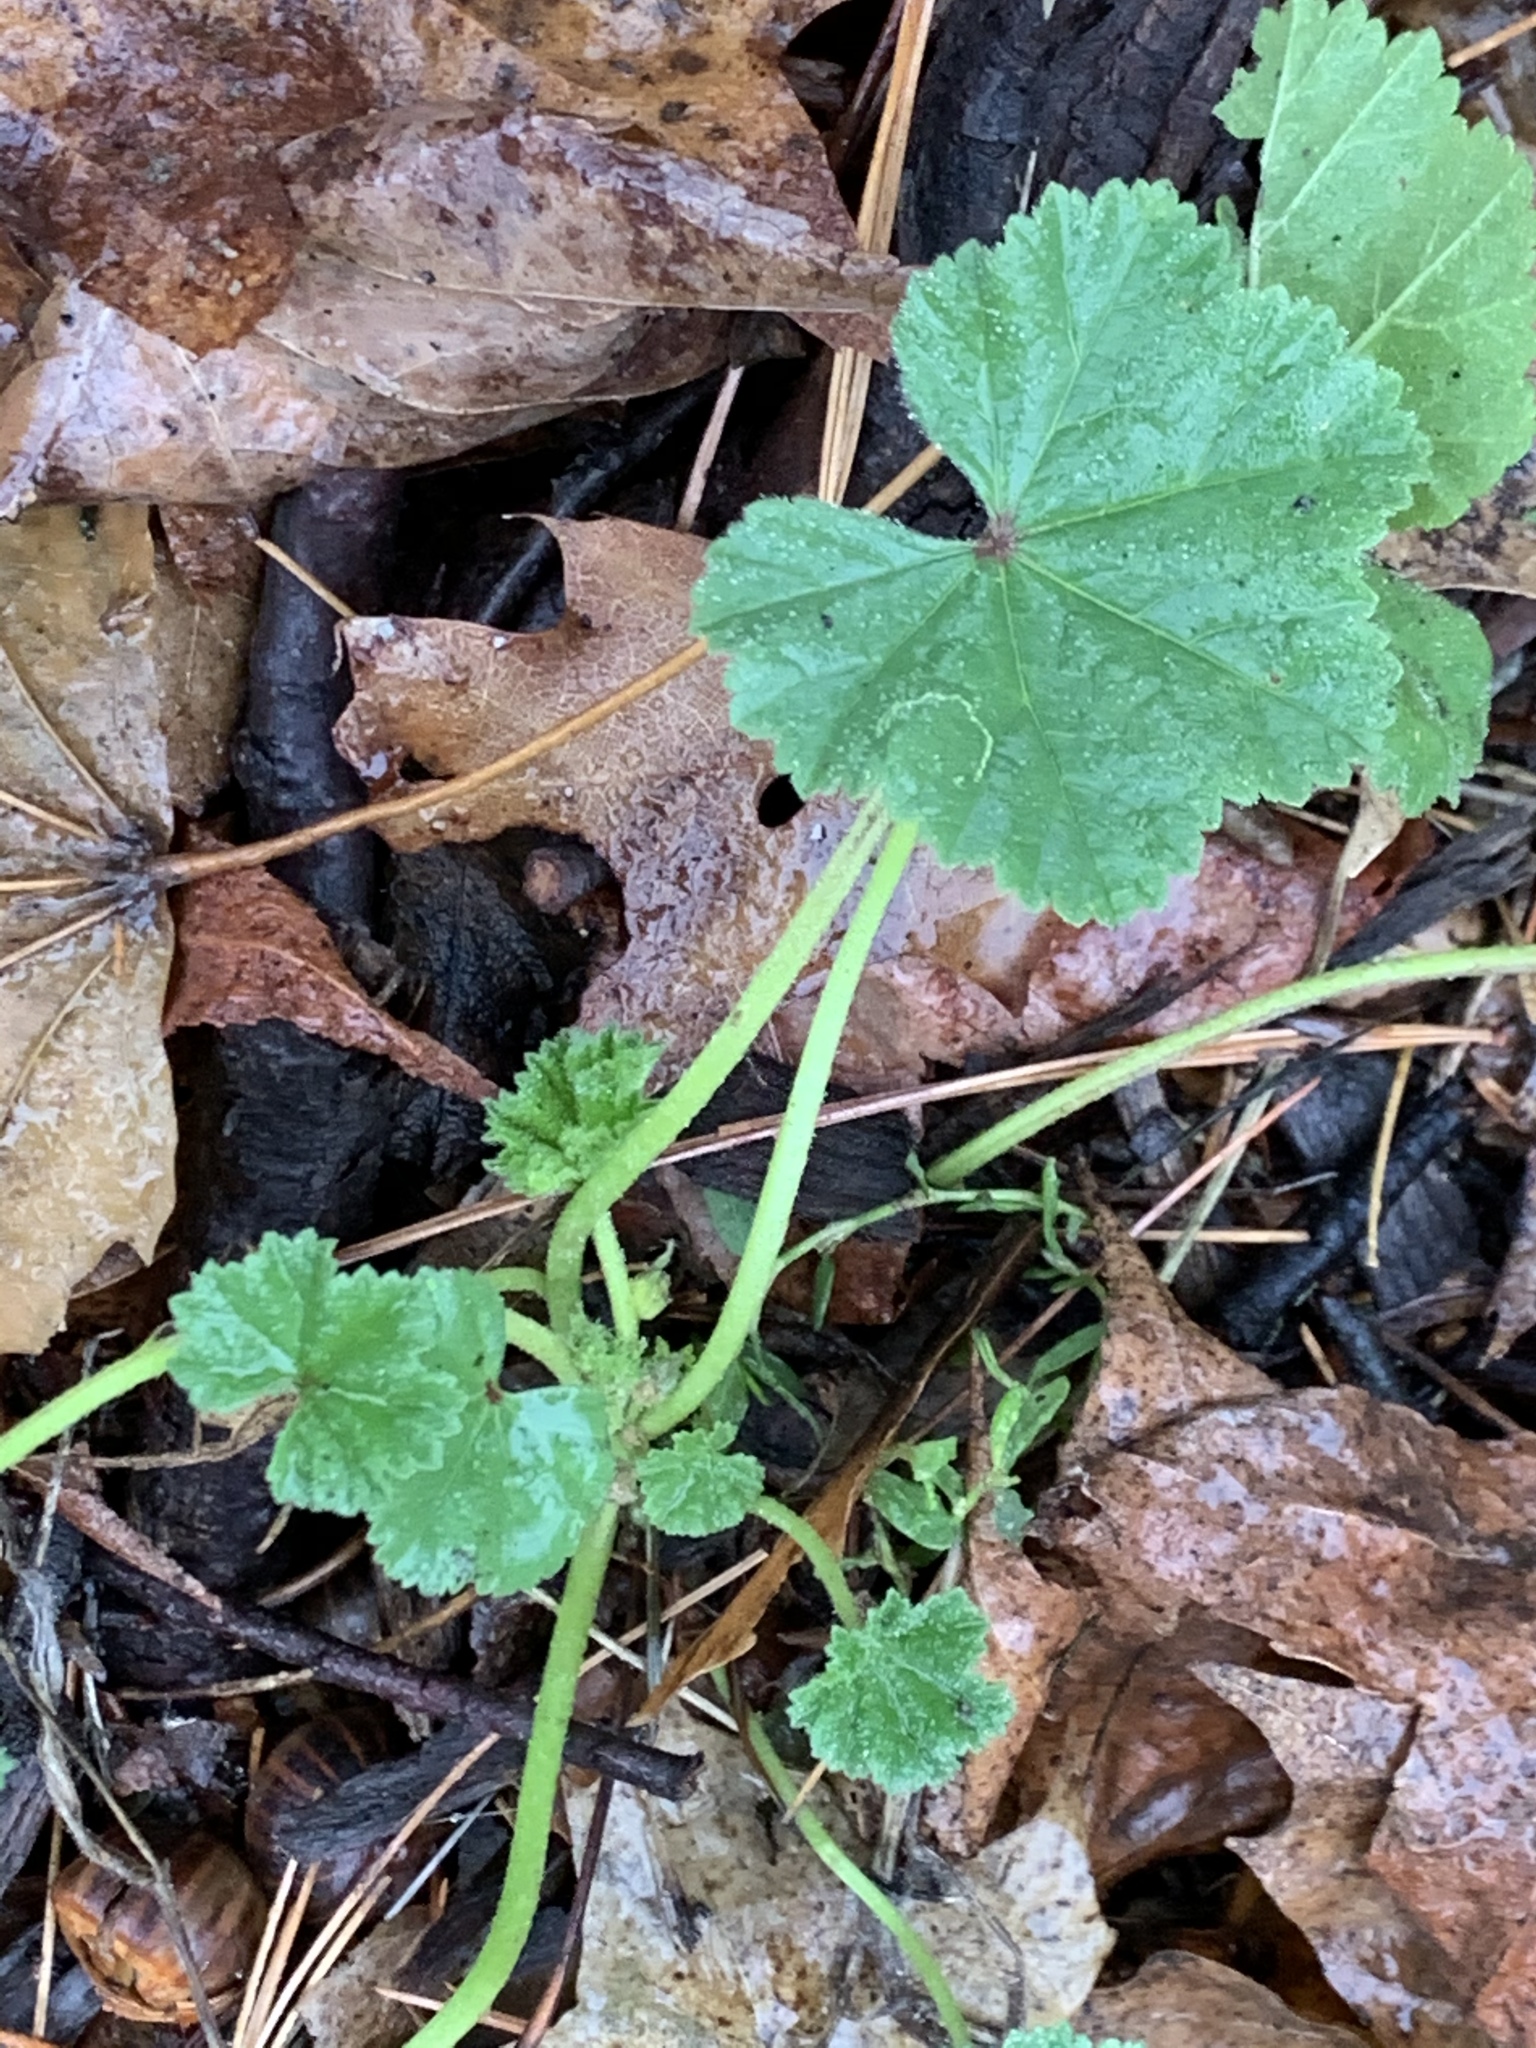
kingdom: Plantae
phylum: Tracheophyta
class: Magnoliopsida
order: Malvales
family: Malvaceae
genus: Malva
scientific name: Malva neglecta
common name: Common mallow
